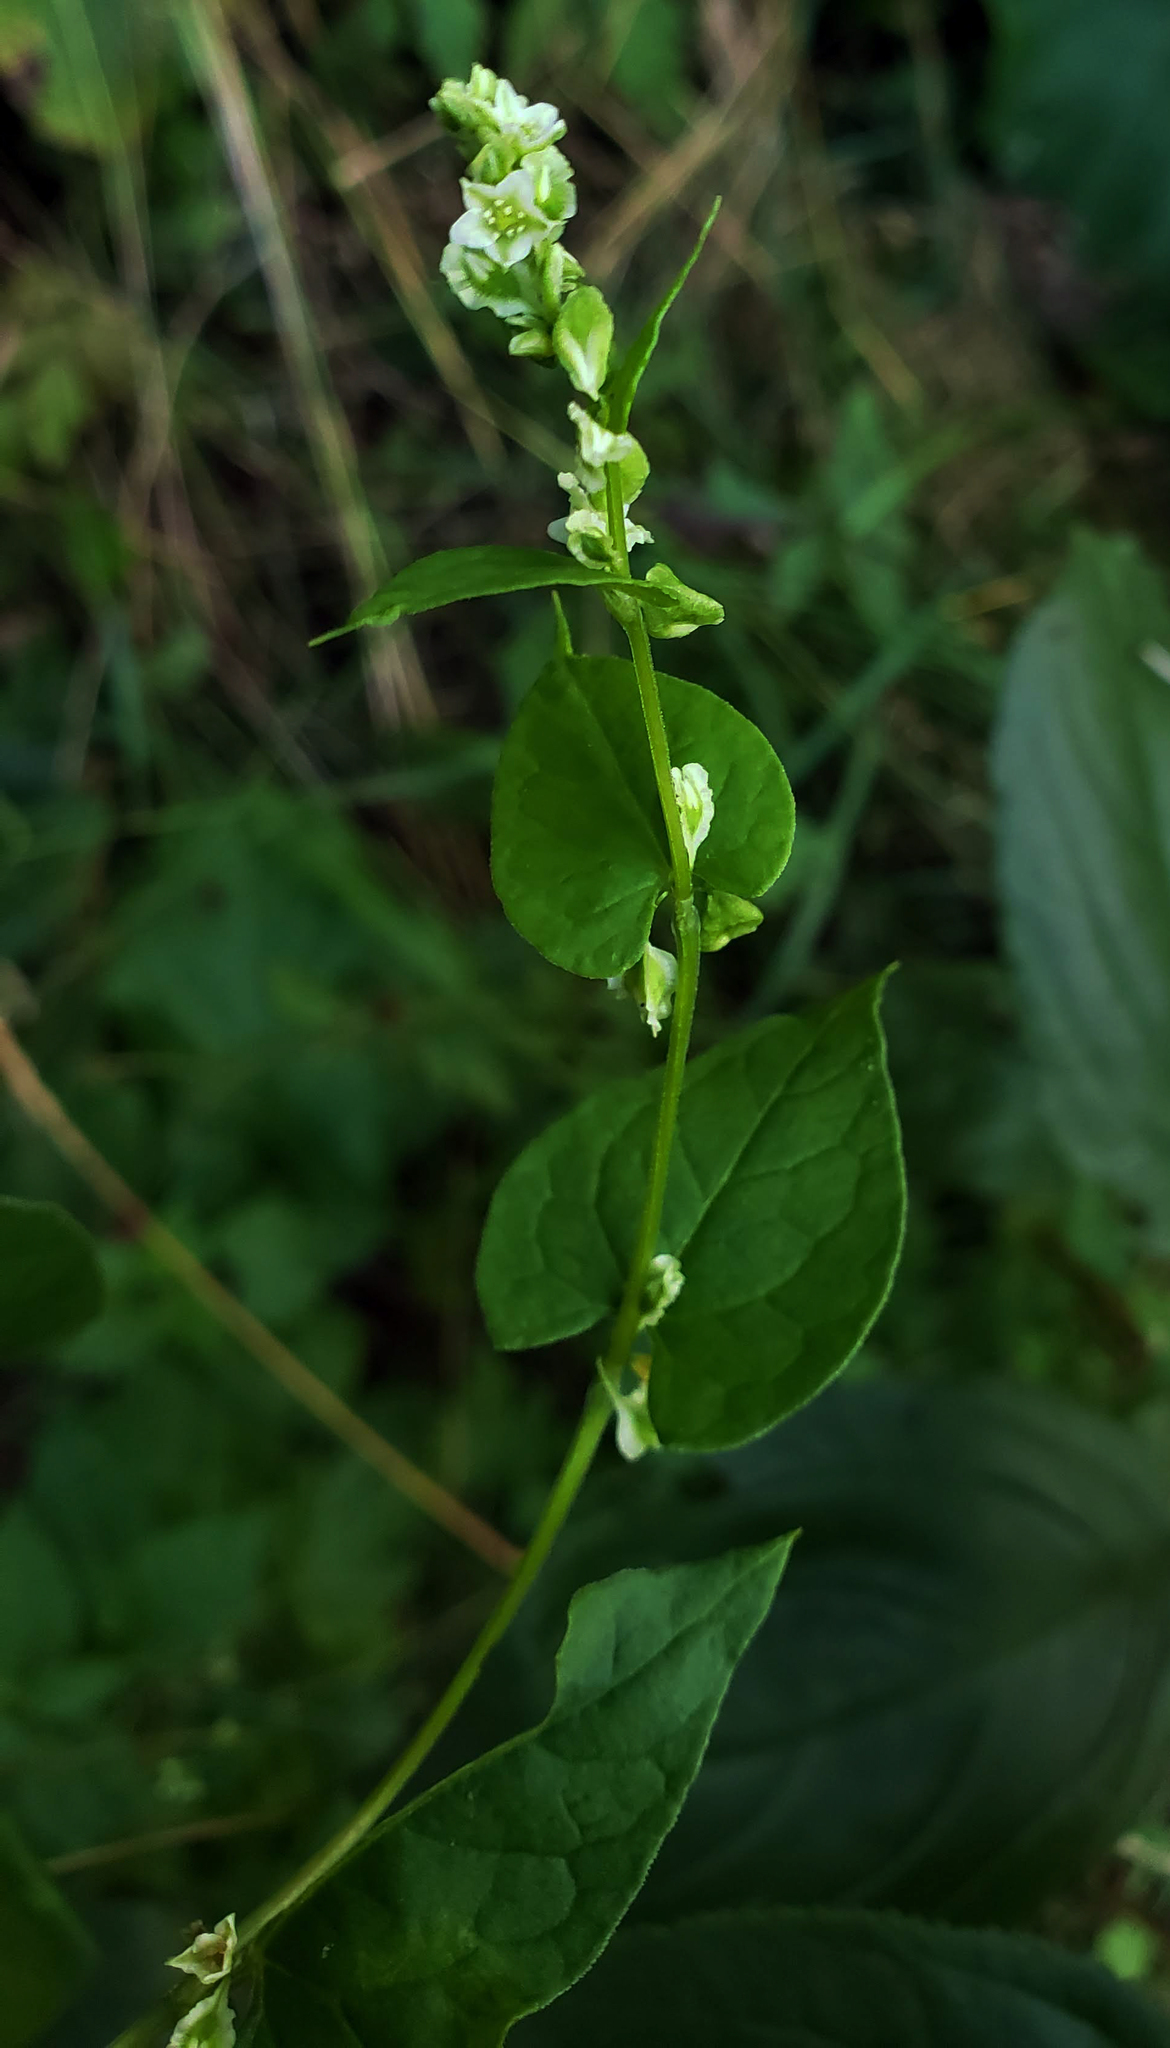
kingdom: Plantae
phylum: Tracheophyta
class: Magnoliopsida
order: Caryophyllales
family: Polygonaceae
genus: Fallopia
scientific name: Fallopia scandens
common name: Climbing false buckwheat
